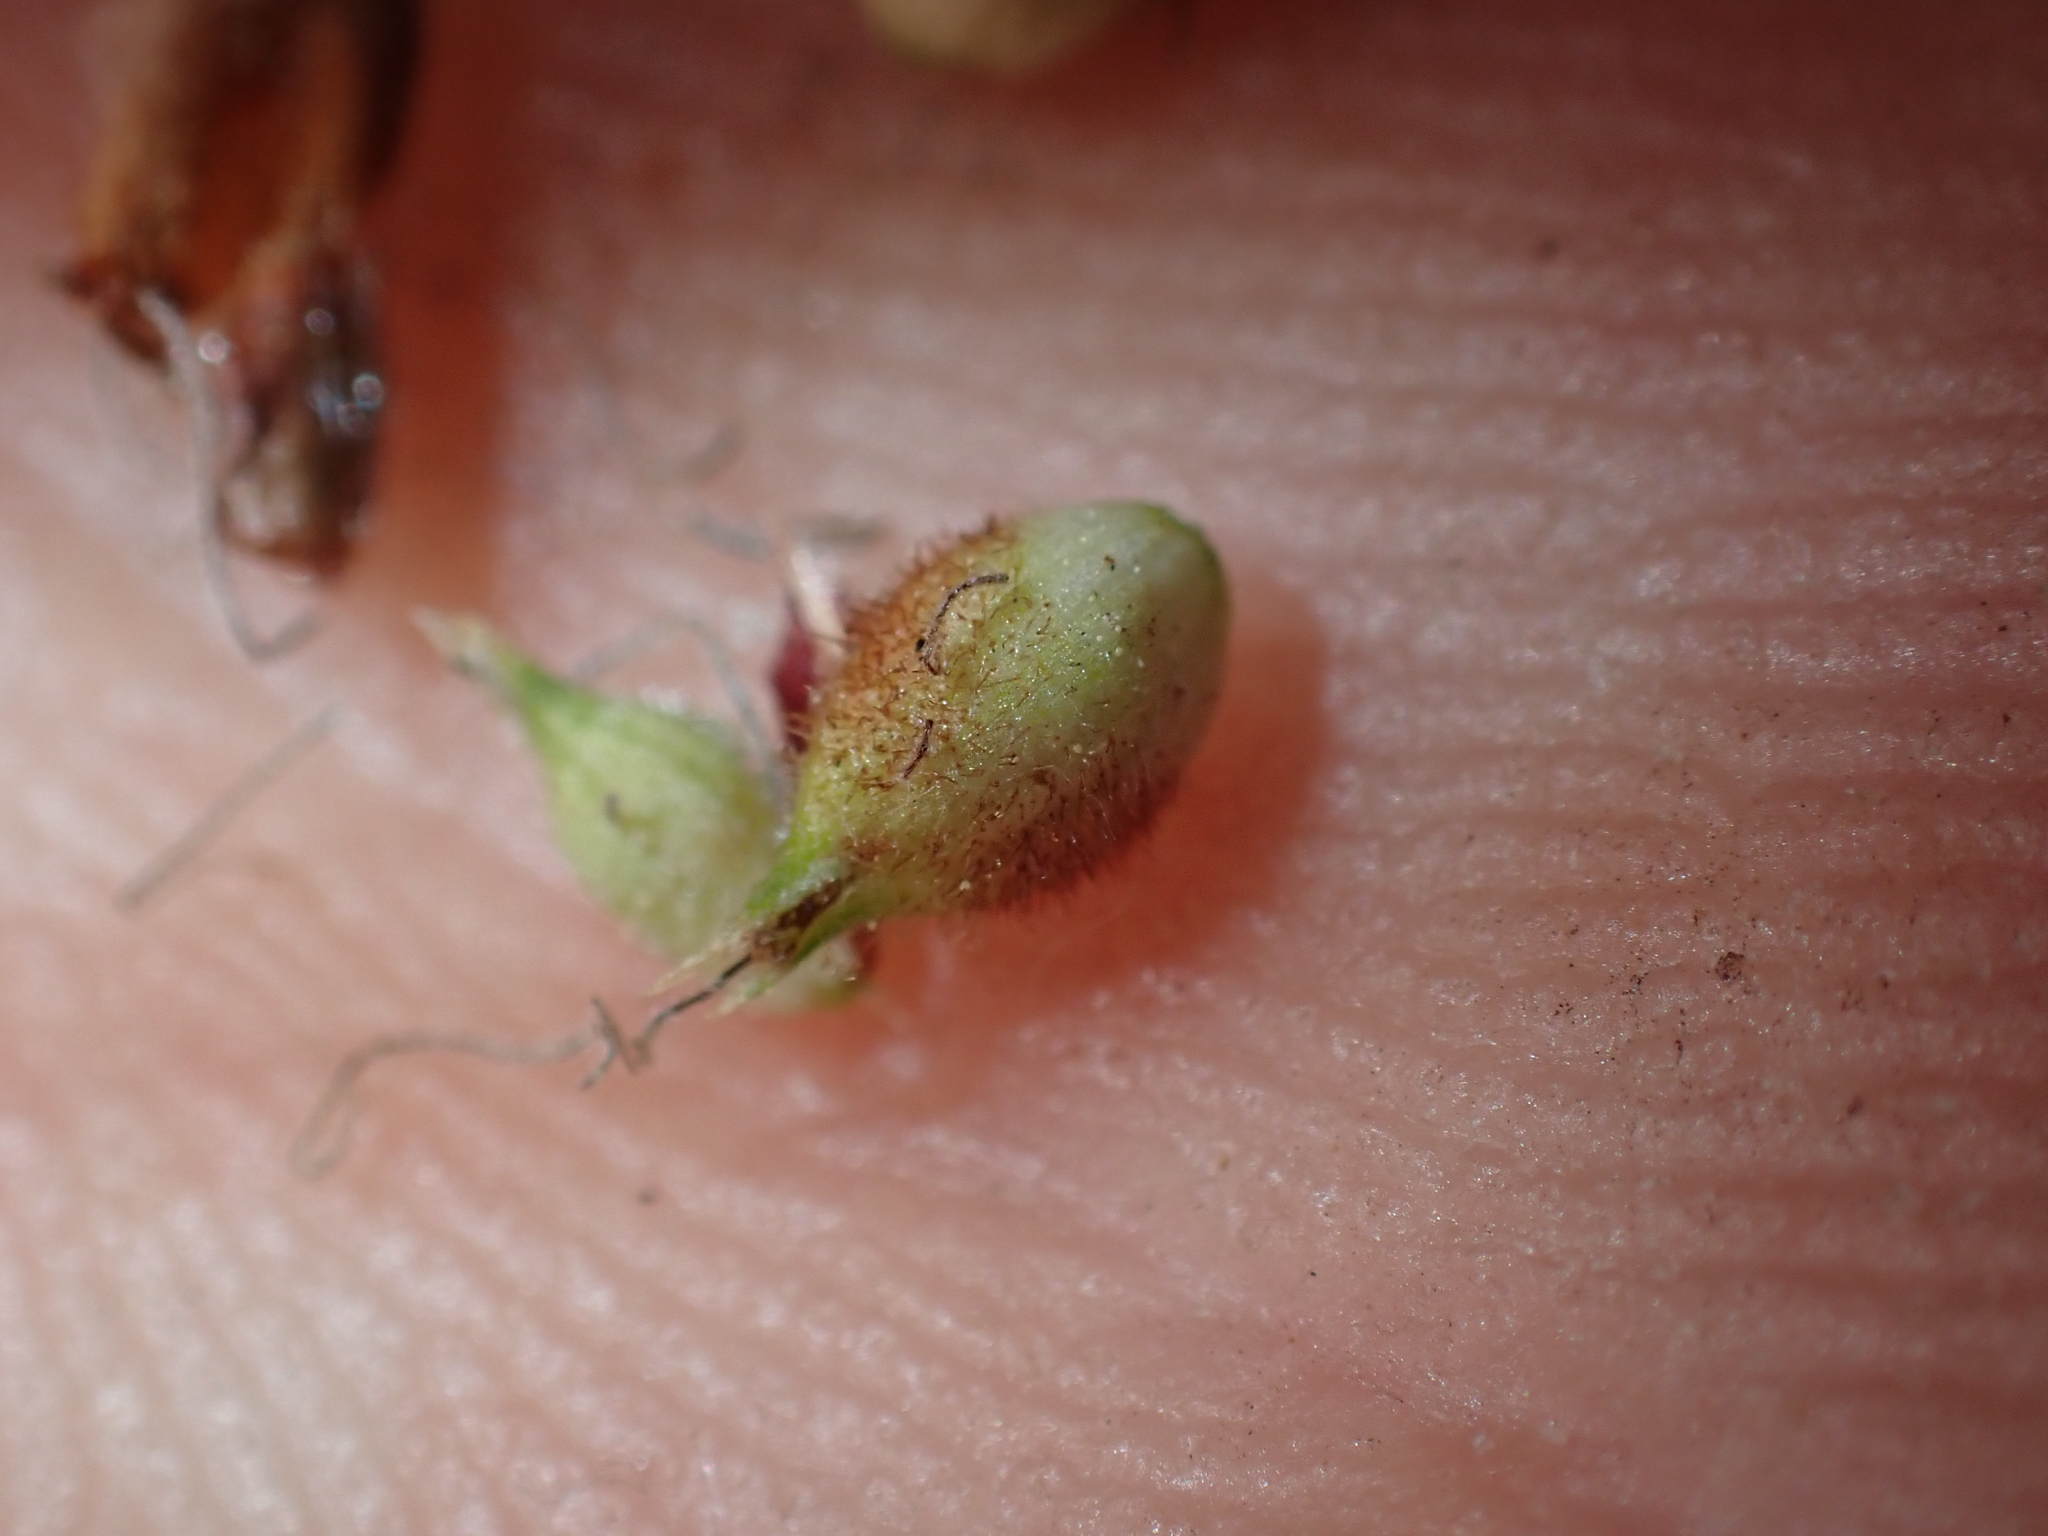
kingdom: Plantae
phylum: Tracheophyta
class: Liliopsida
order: Poales
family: Cyperaceae
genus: Carex
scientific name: Carex pellita
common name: Woolly sedge
